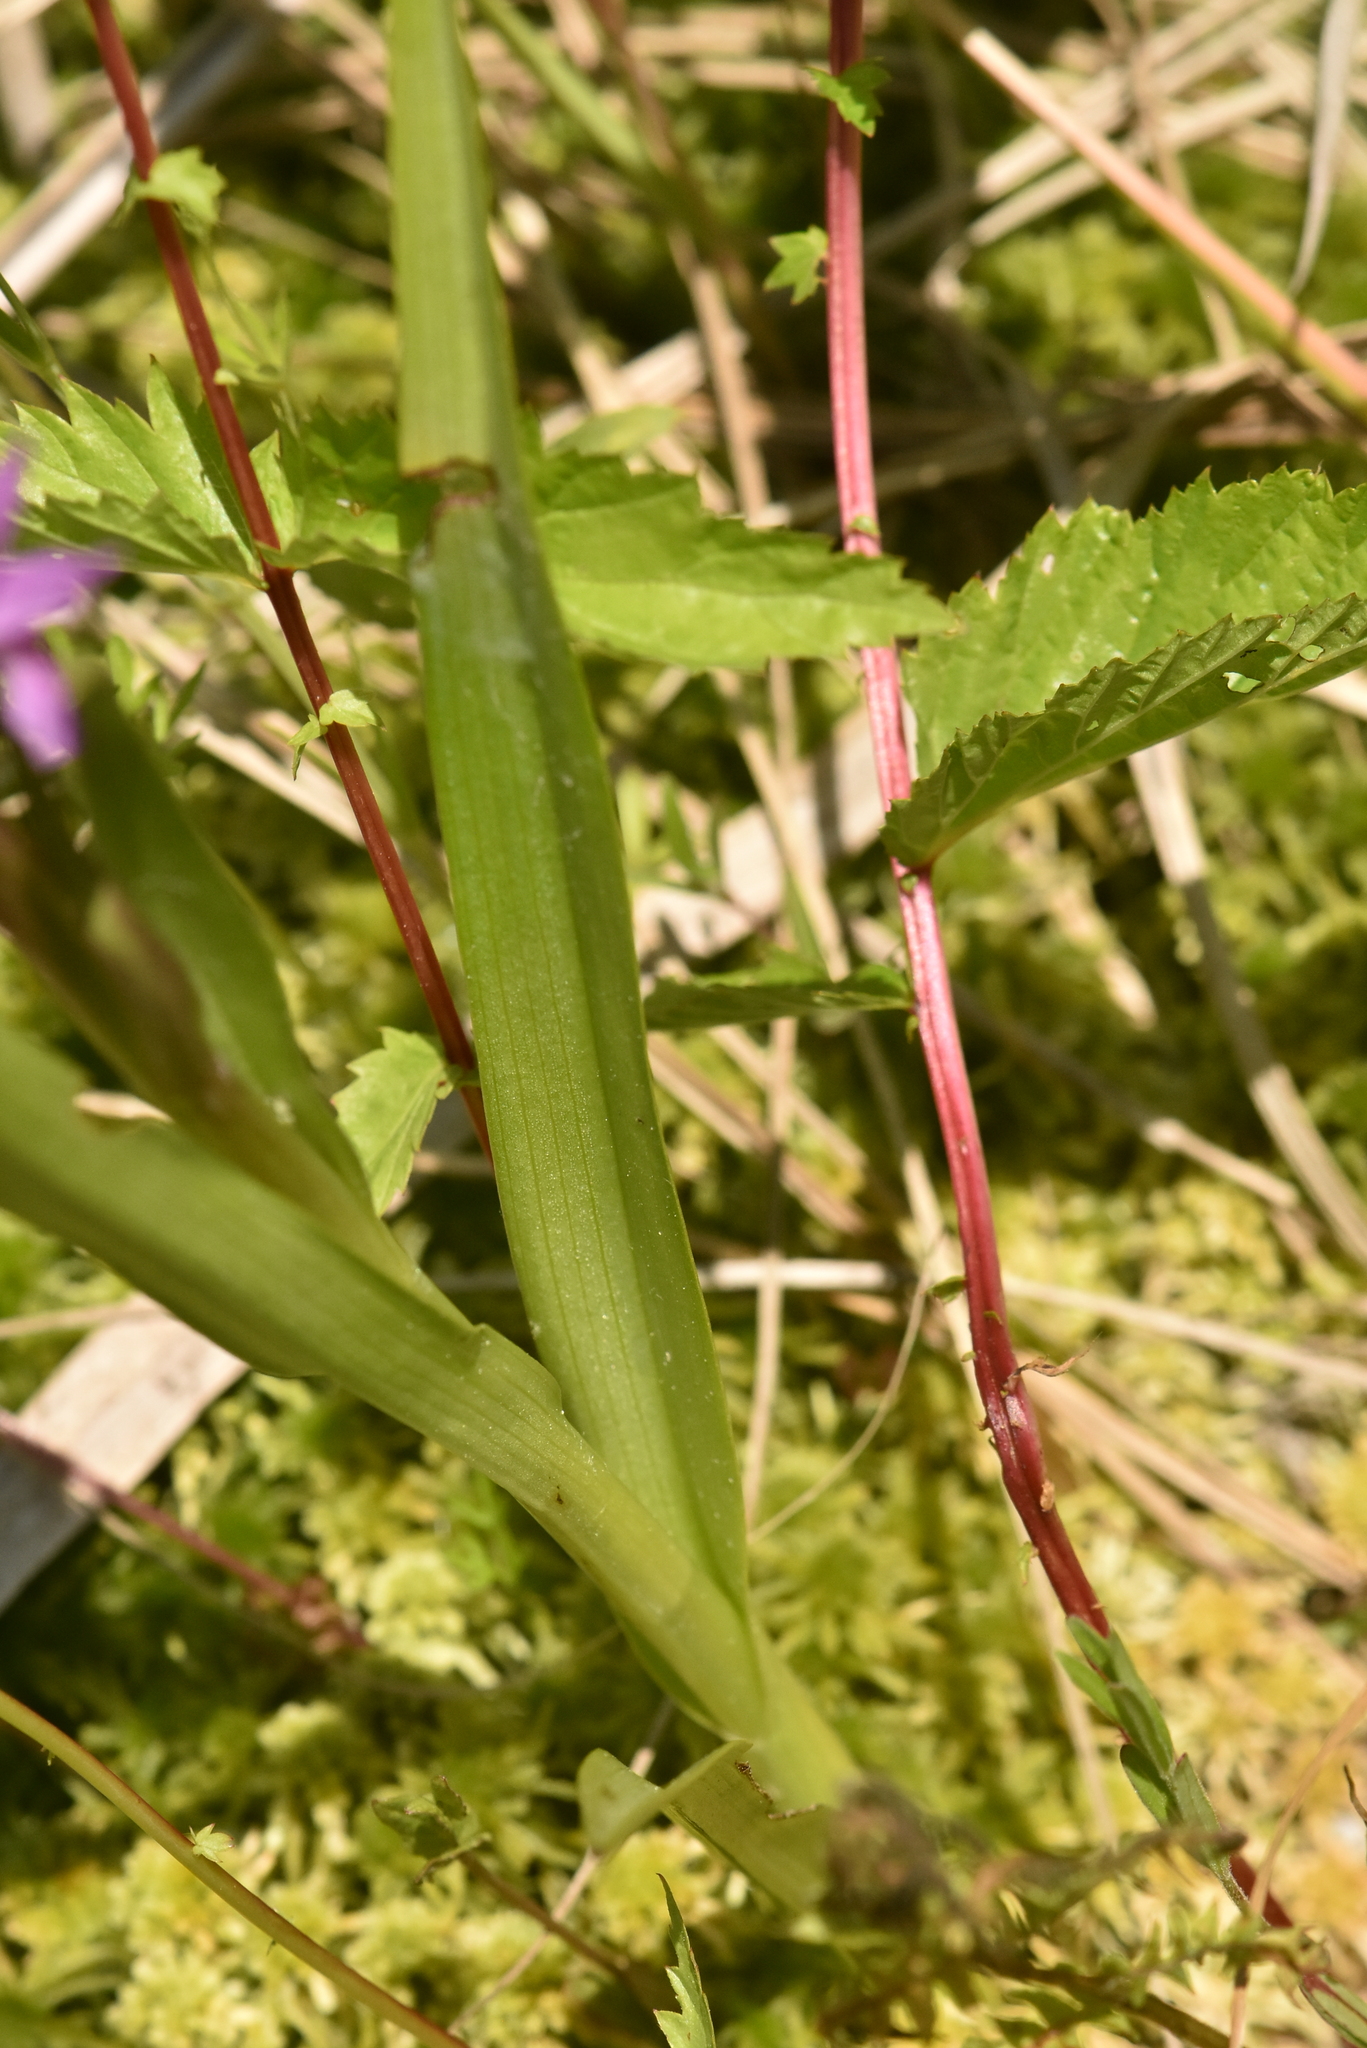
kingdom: Plantae
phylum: Tracheophyta
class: Liliopsida
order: Asparagales
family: Orchidaceae
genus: Dactylorhiza
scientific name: Dactylorhiza incarnata
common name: Early marsh-orchid
